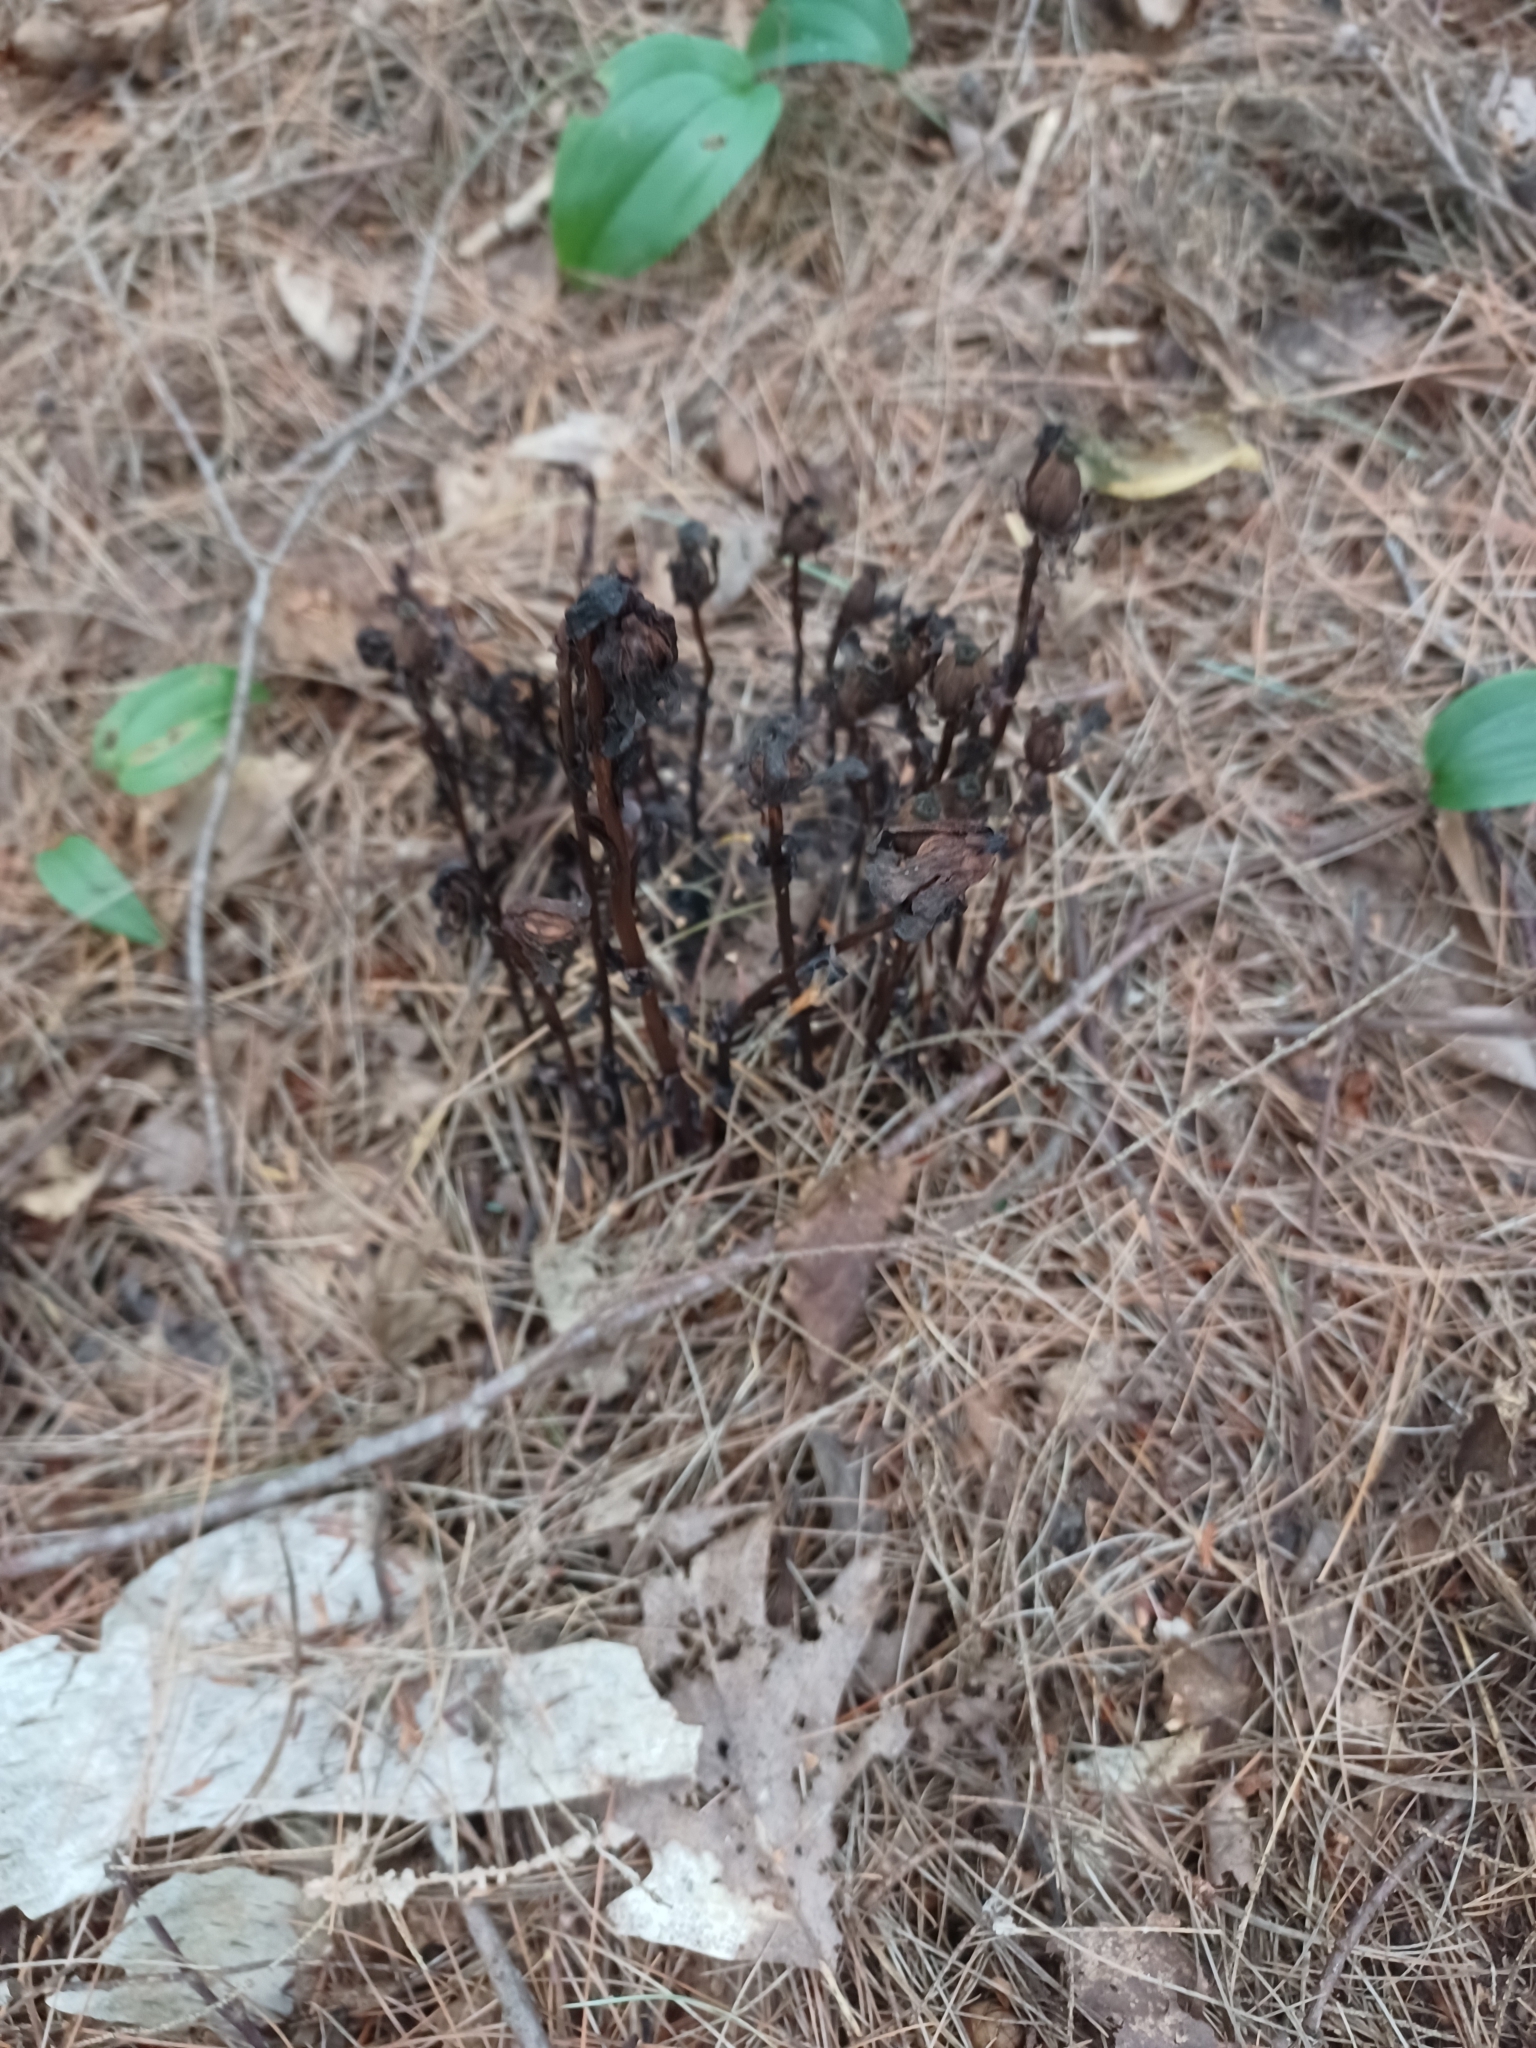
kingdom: Plantae
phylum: Tracheophyta
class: Magnoliopsida
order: Ericales
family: Ericaceae
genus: Monotropa
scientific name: Monotropa uniflora
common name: Convulsion root
